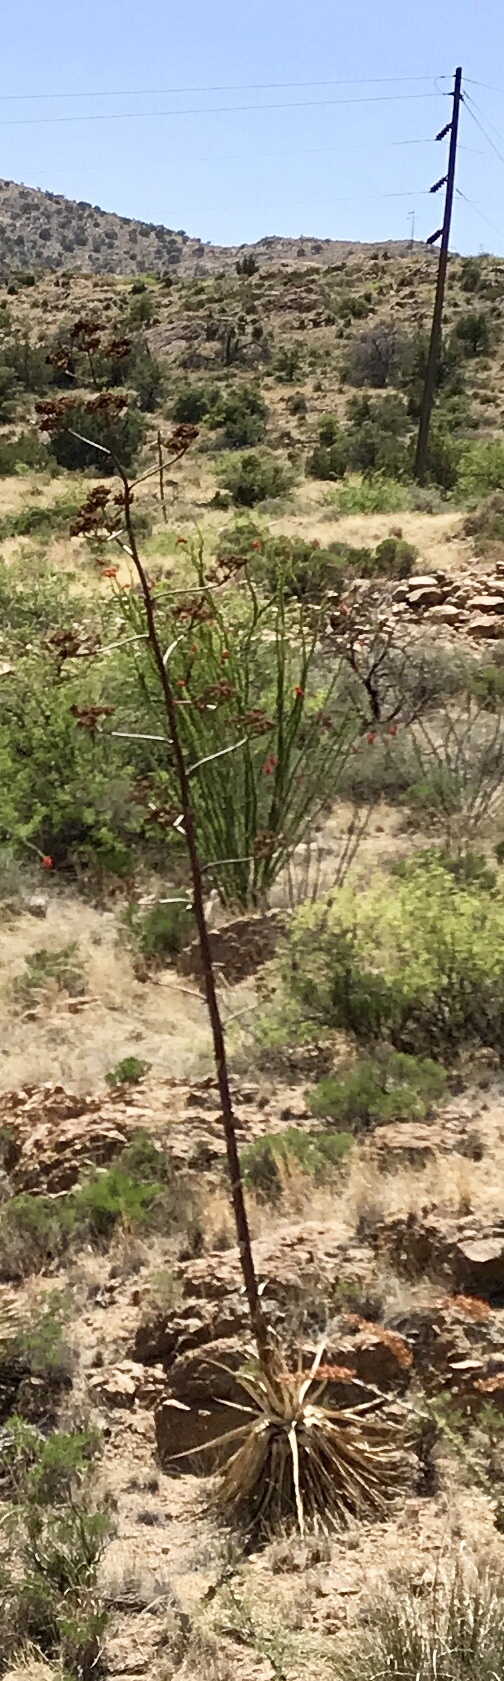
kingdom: Plantae
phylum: Tracheophyta
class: Liliopsida
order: Asparagales
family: Asparagaceae
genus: Agave
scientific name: Agave palmeri
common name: Palmer agave
